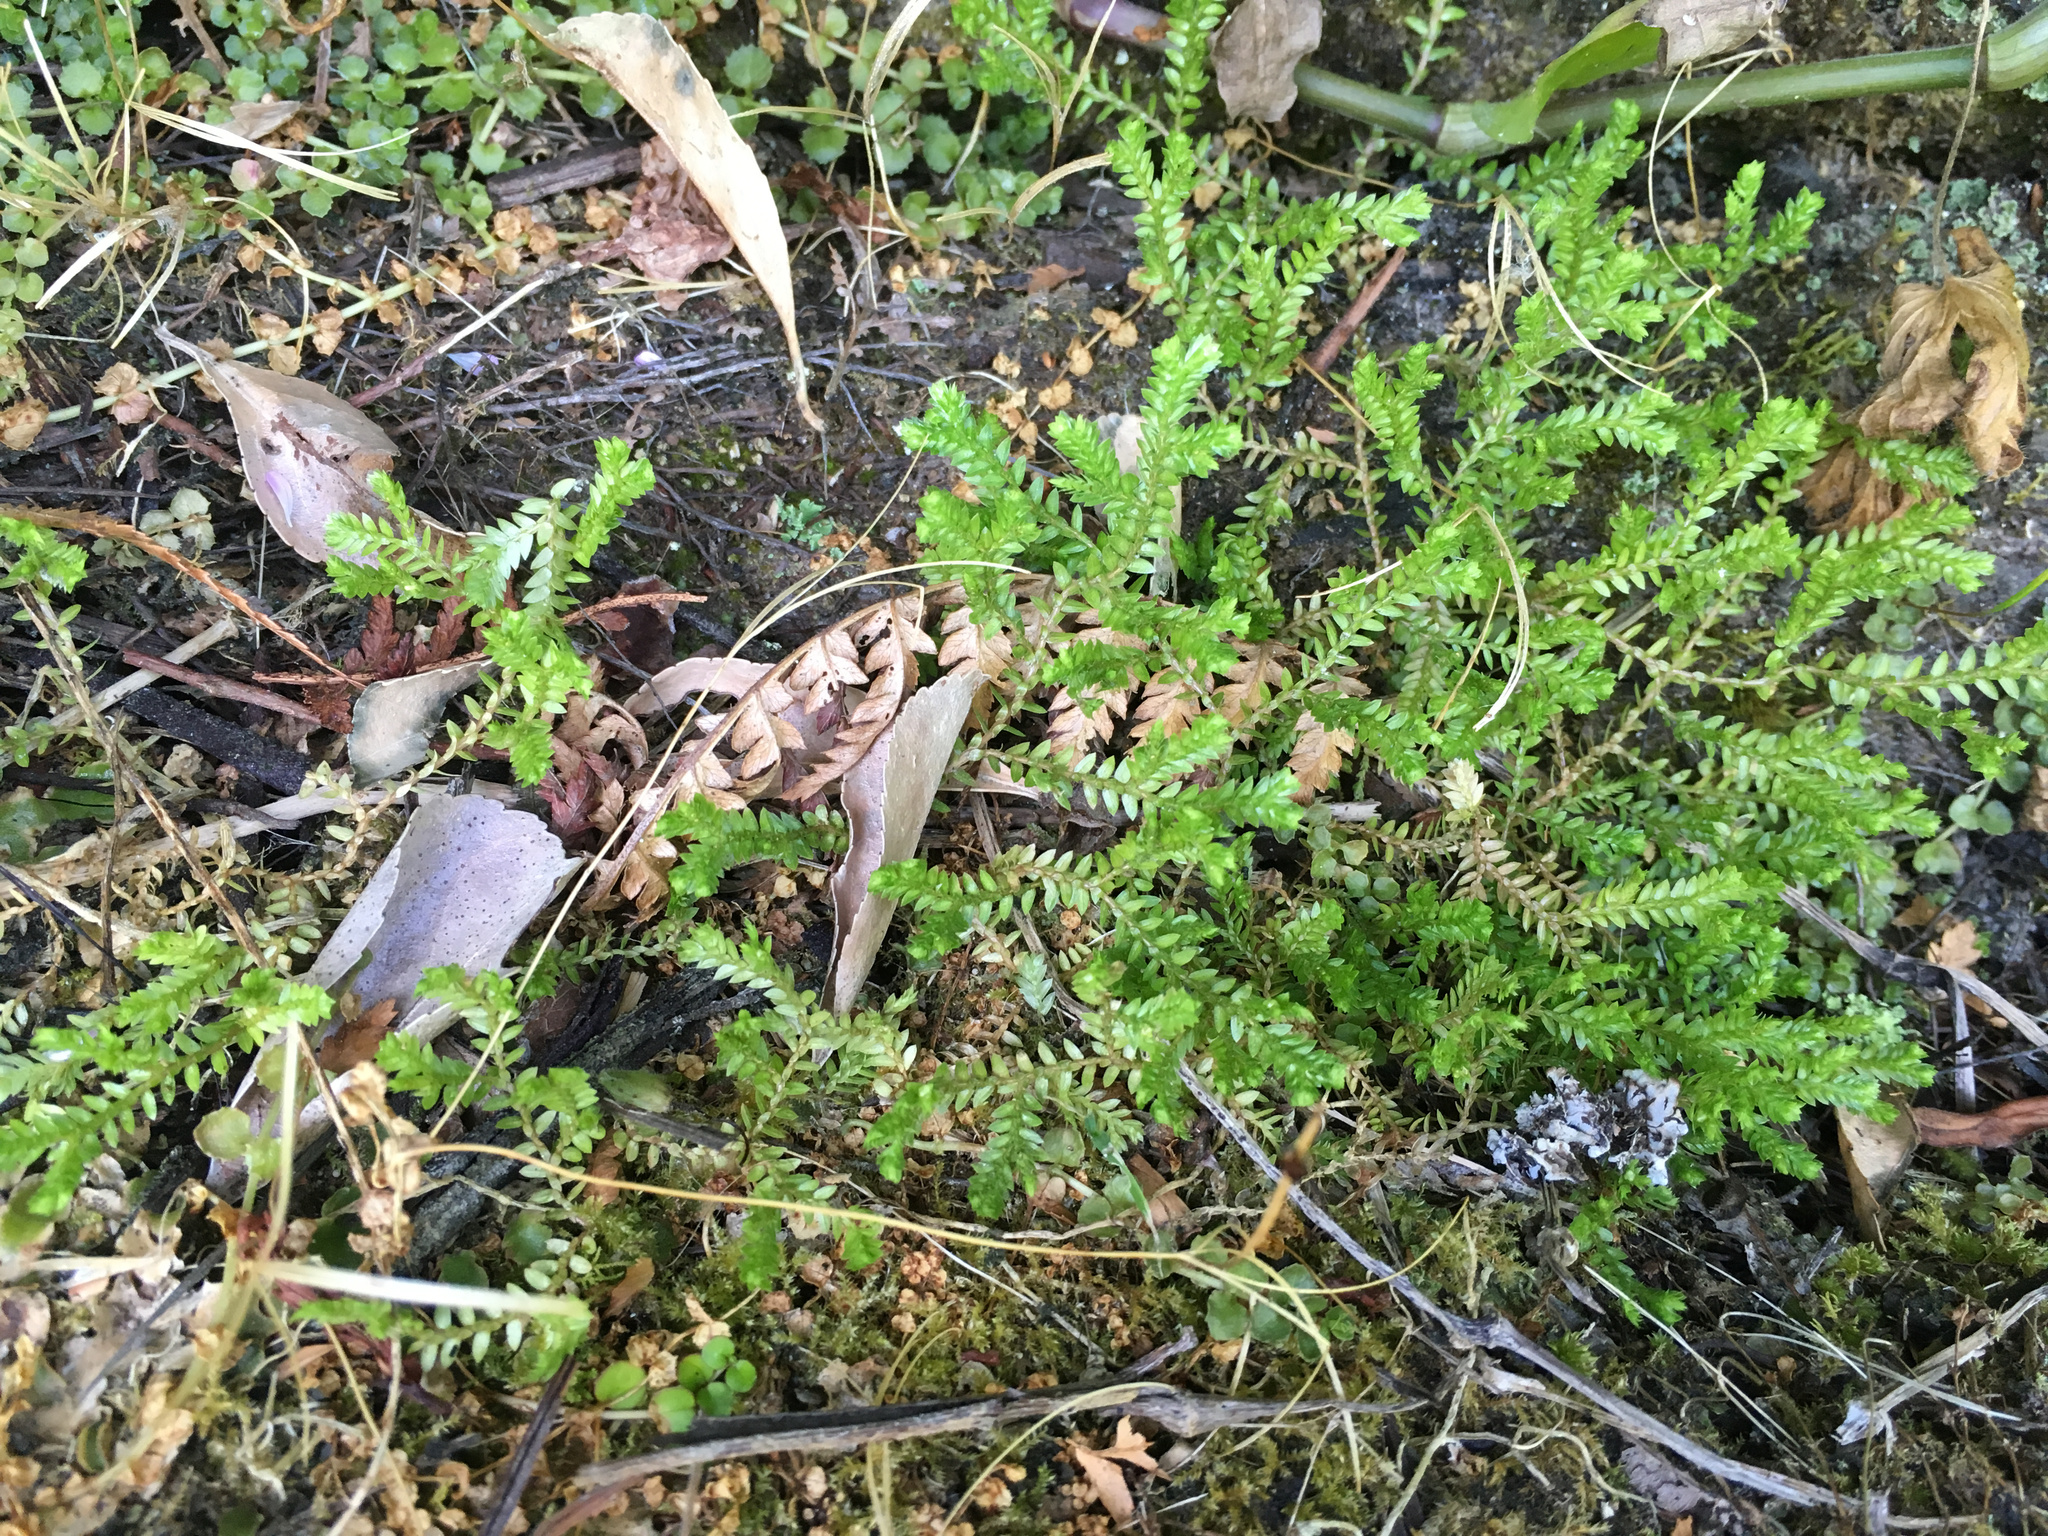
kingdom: Plantae
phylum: Tracheophyta
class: Lycopodiopsida
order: Selaginellales
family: Selaginellaceae
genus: Selaginella
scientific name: Selaginella kraussiana
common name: Krauss' spikemoss
